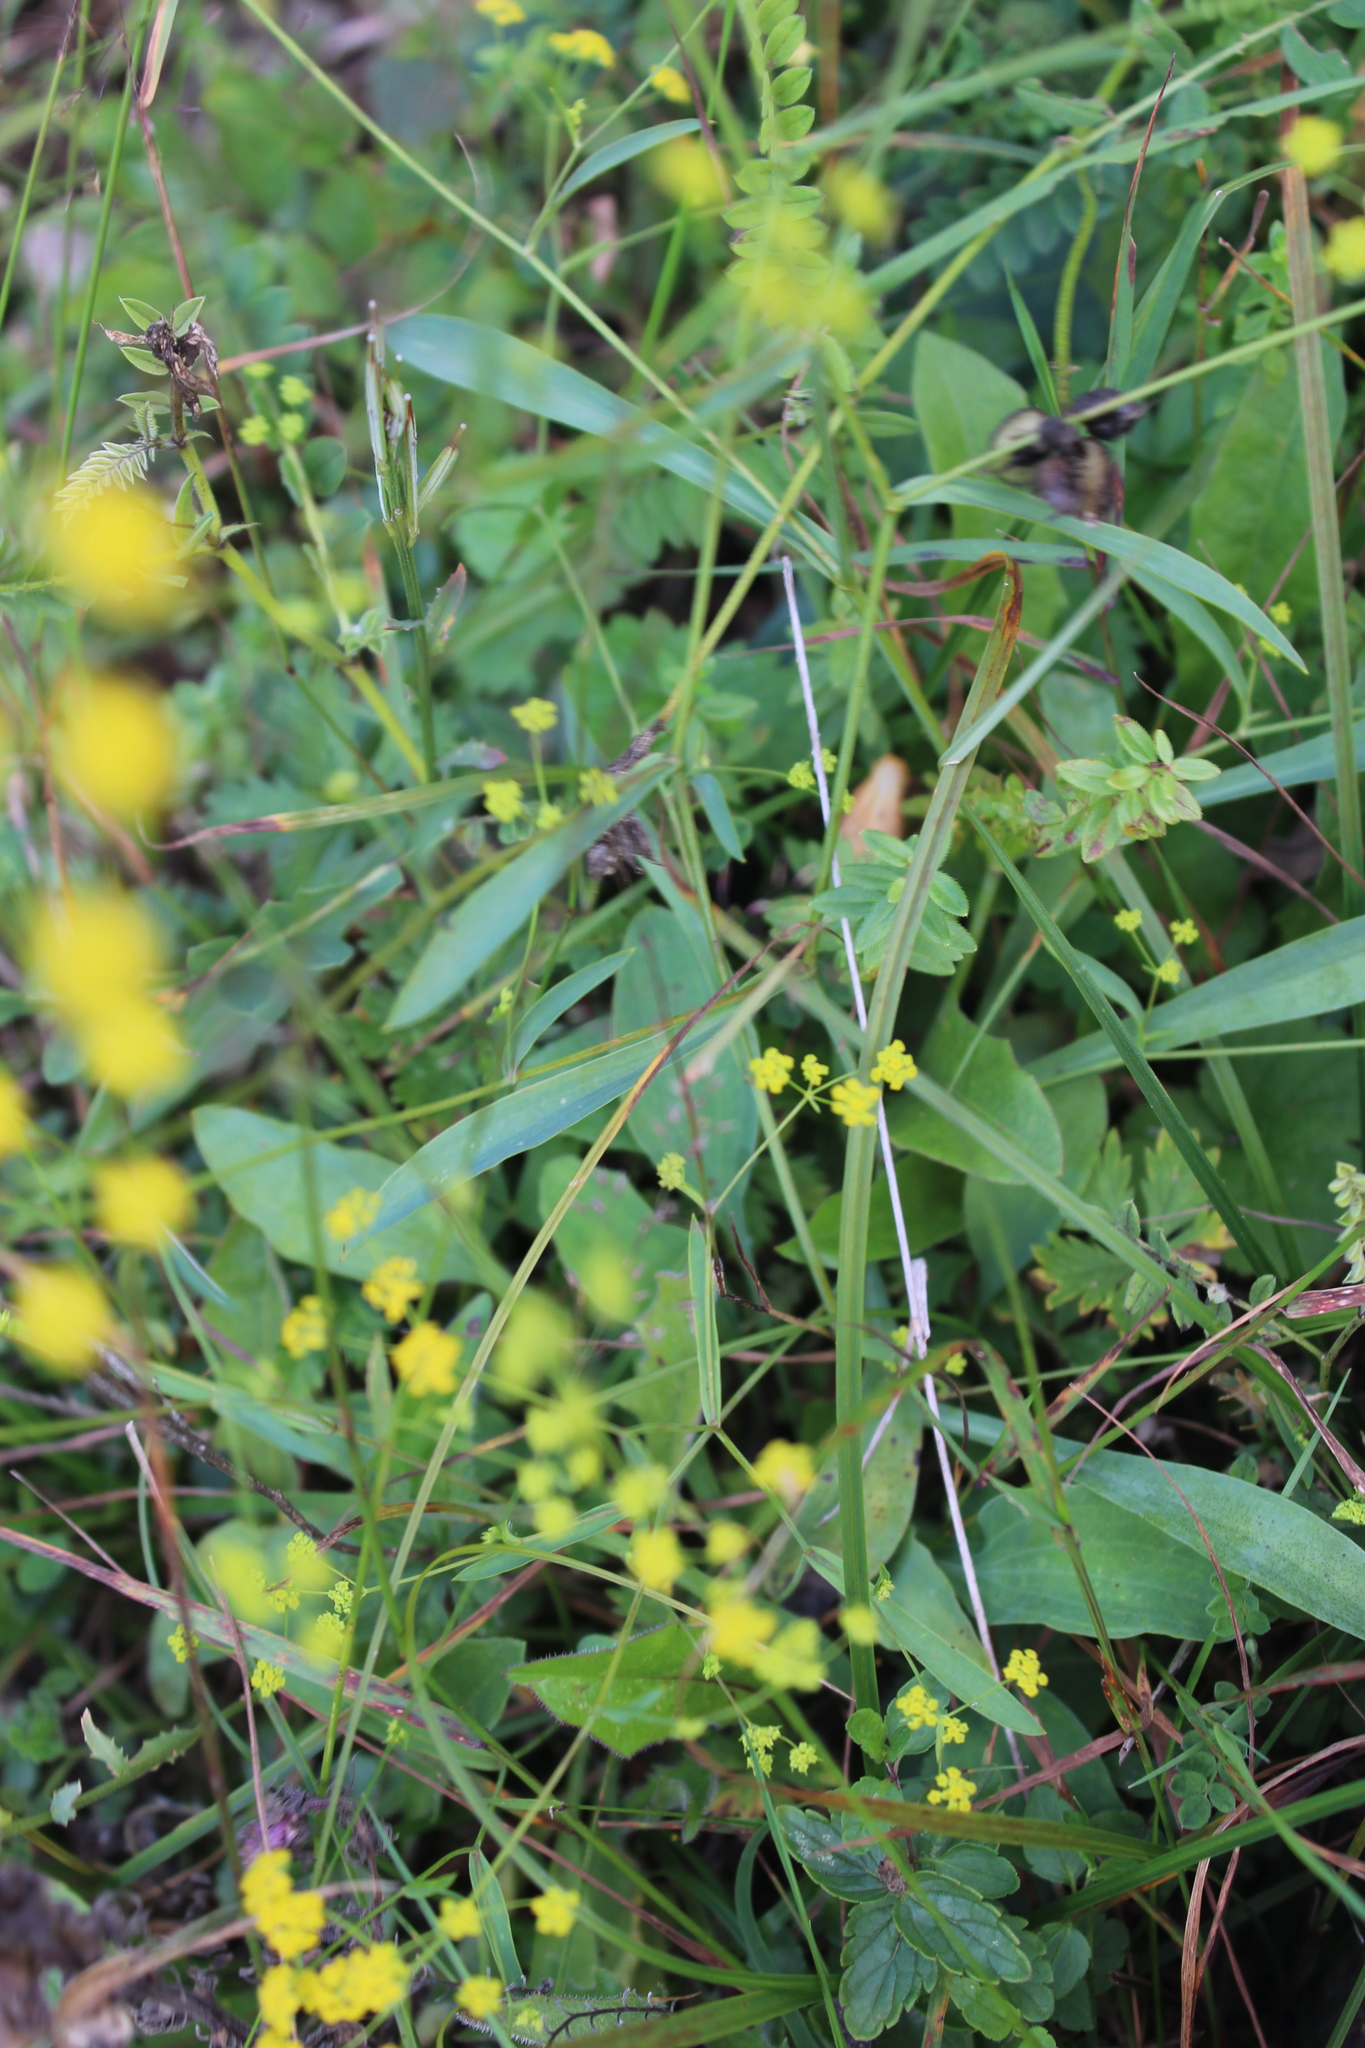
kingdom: Plantae
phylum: Tracheophyta
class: Magnoliopsida
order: Apiales
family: Apiaceae
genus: Bupleurum
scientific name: Bupleurum falcatum
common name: Sickle-leaved hare's-ear
